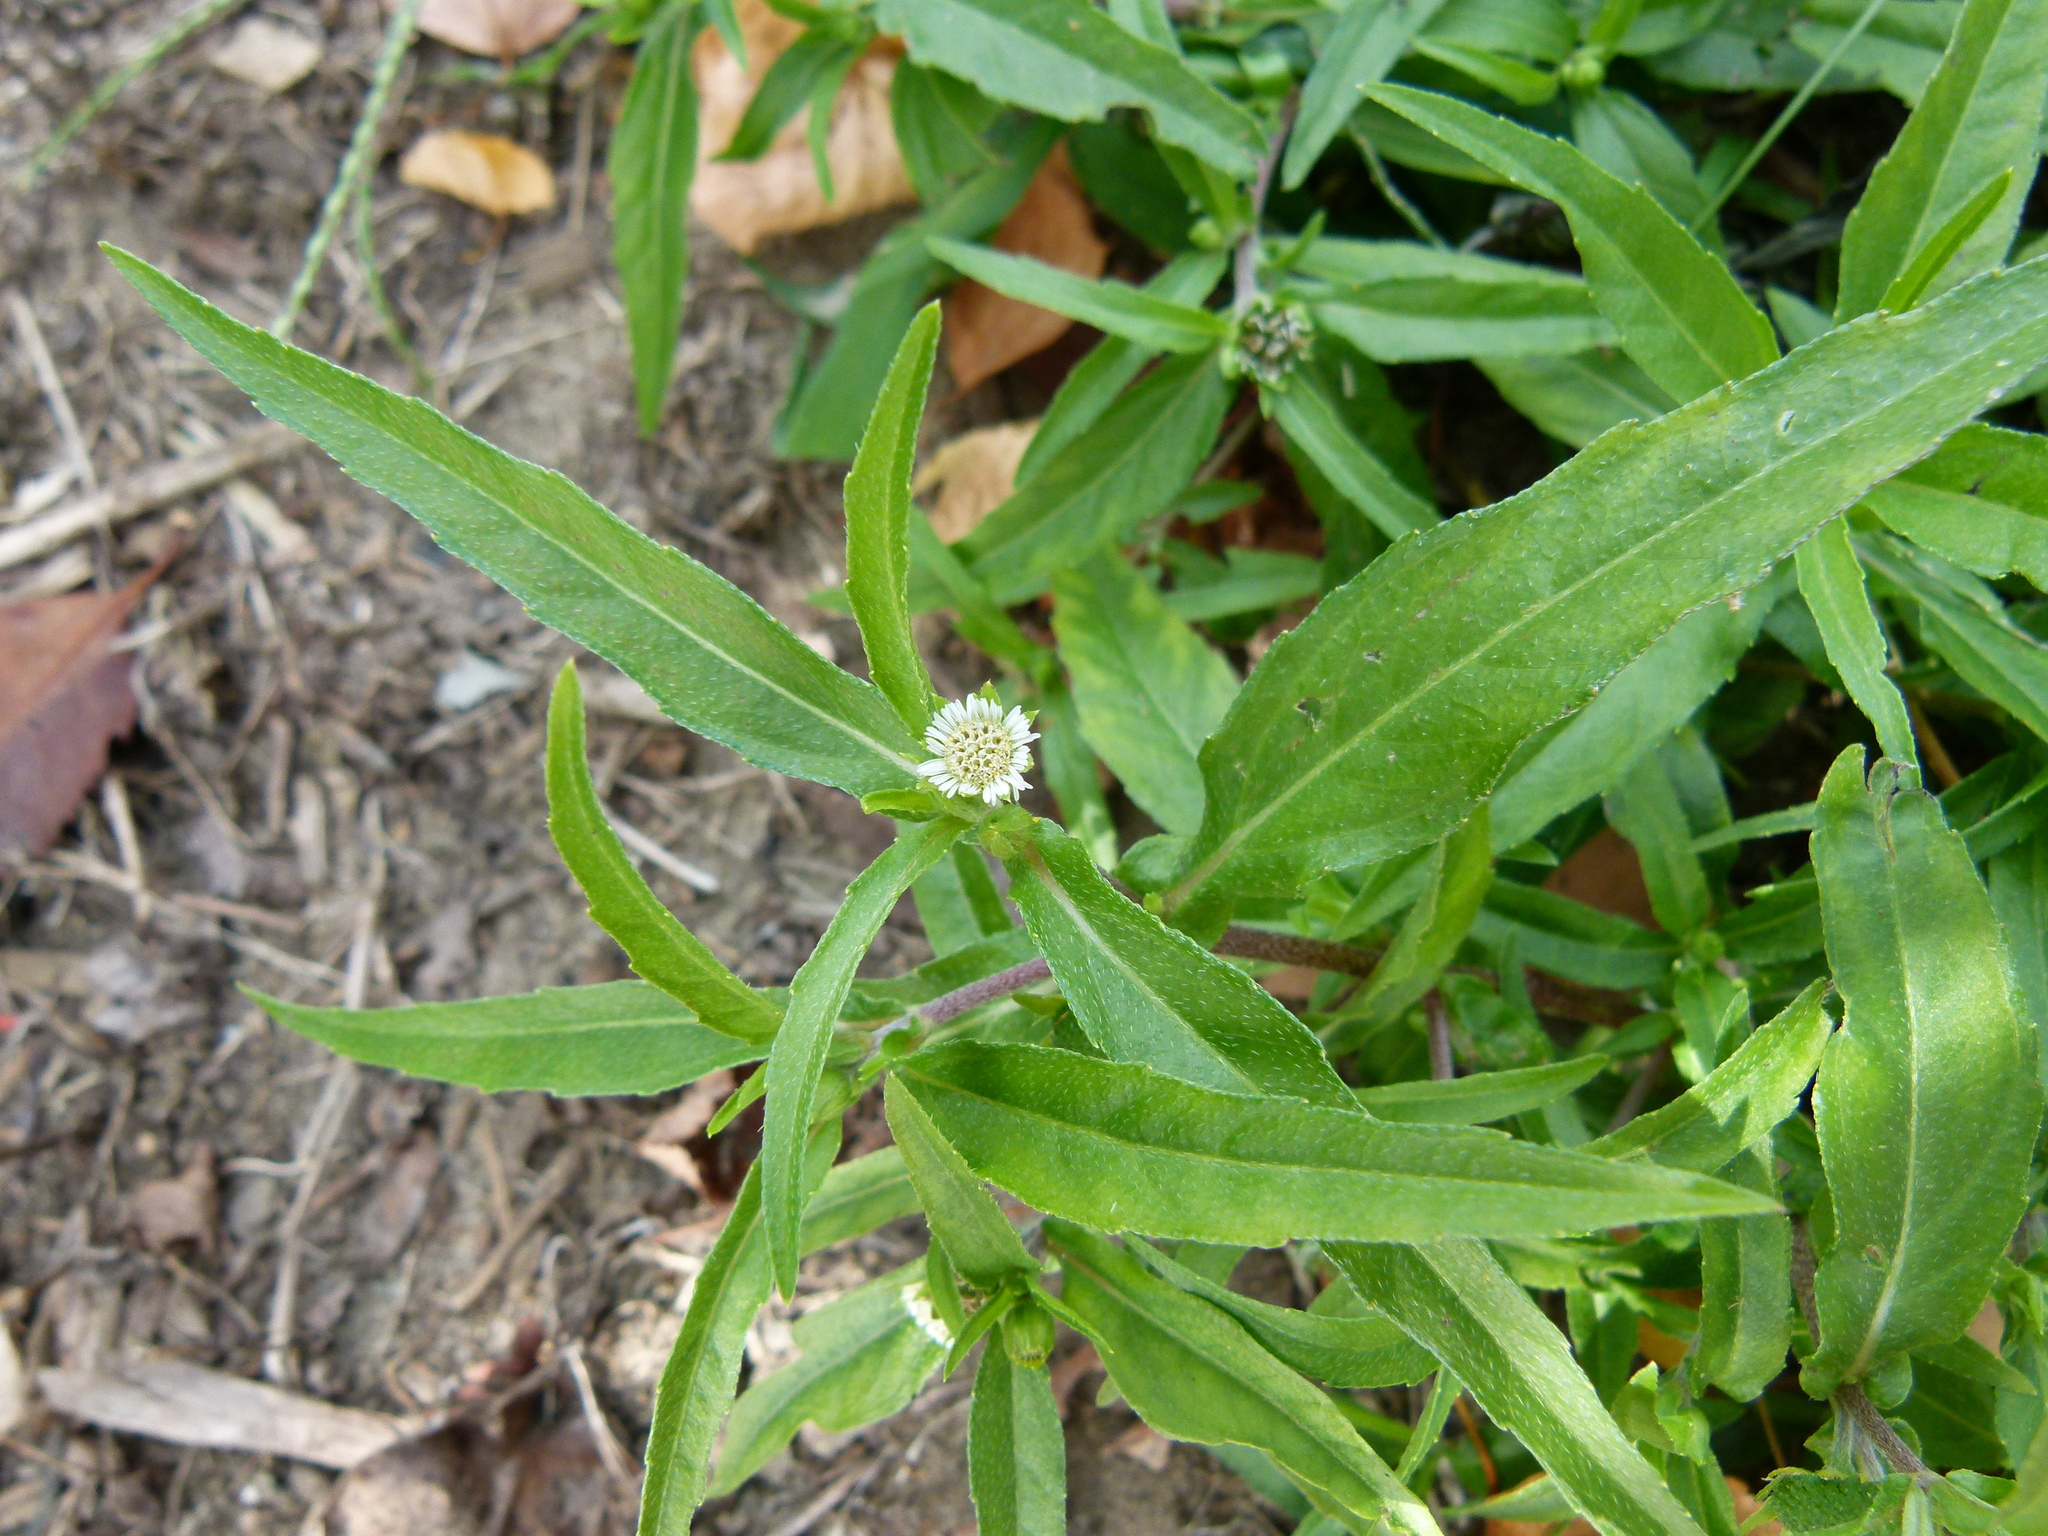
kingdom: Plantae
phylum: Tracheophyta
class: Magnoliopsida
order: Asterales
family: Asteraceae
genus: Eclipta
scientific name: Eclipta prostrata
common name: False daisy
